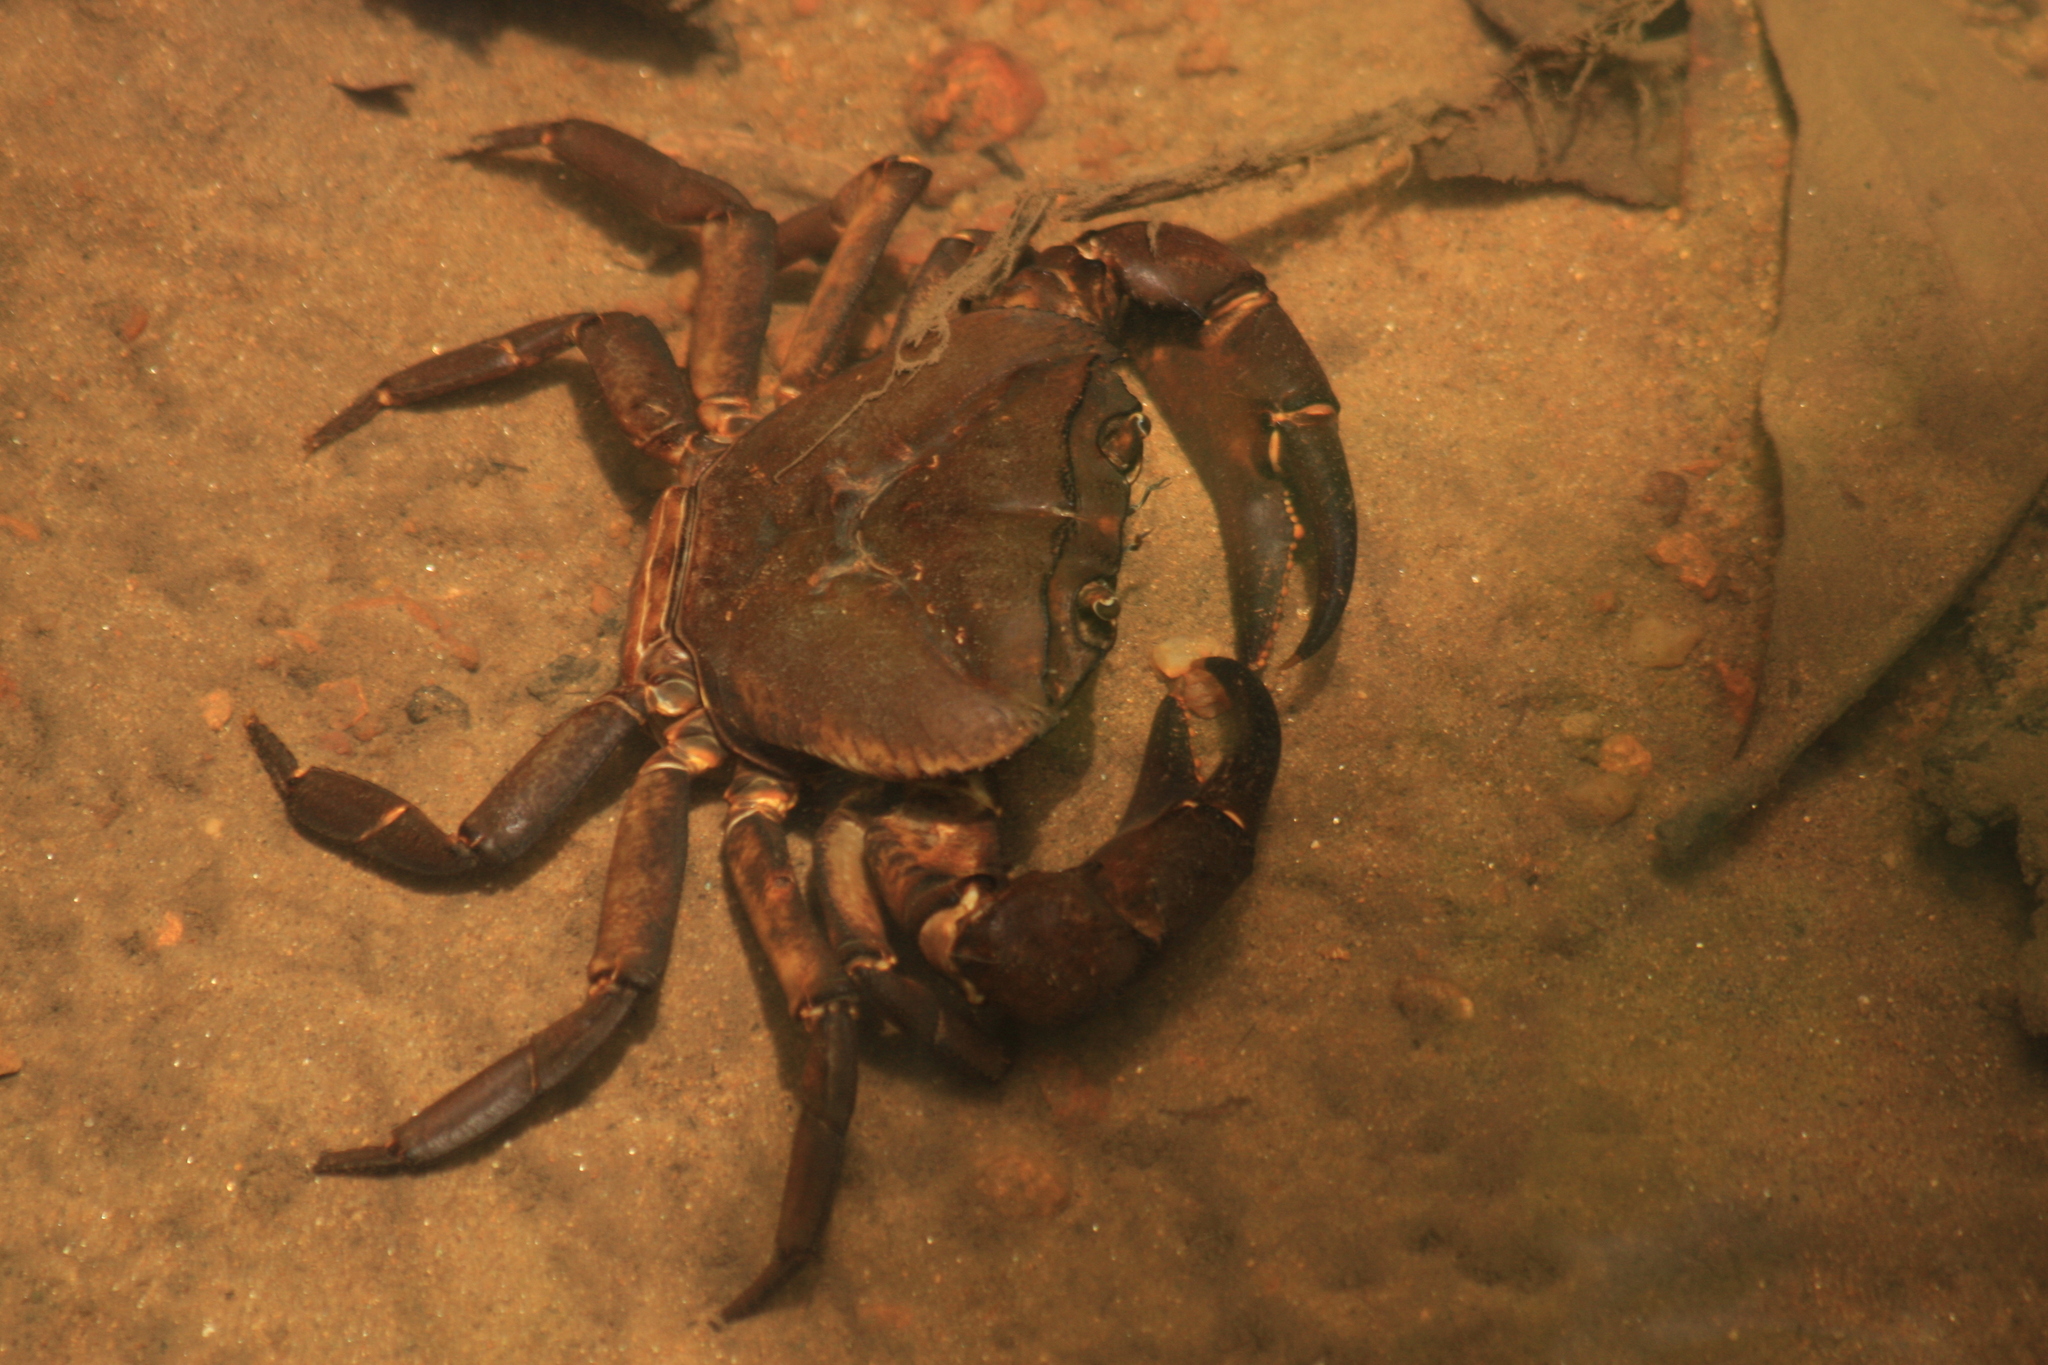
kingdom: Animalia
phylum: Arthropoda
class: Malacostraca
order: Decapoda
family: Gecarcinucidae
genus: Barytelphusa
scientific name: Barytelphusa cunicularis
